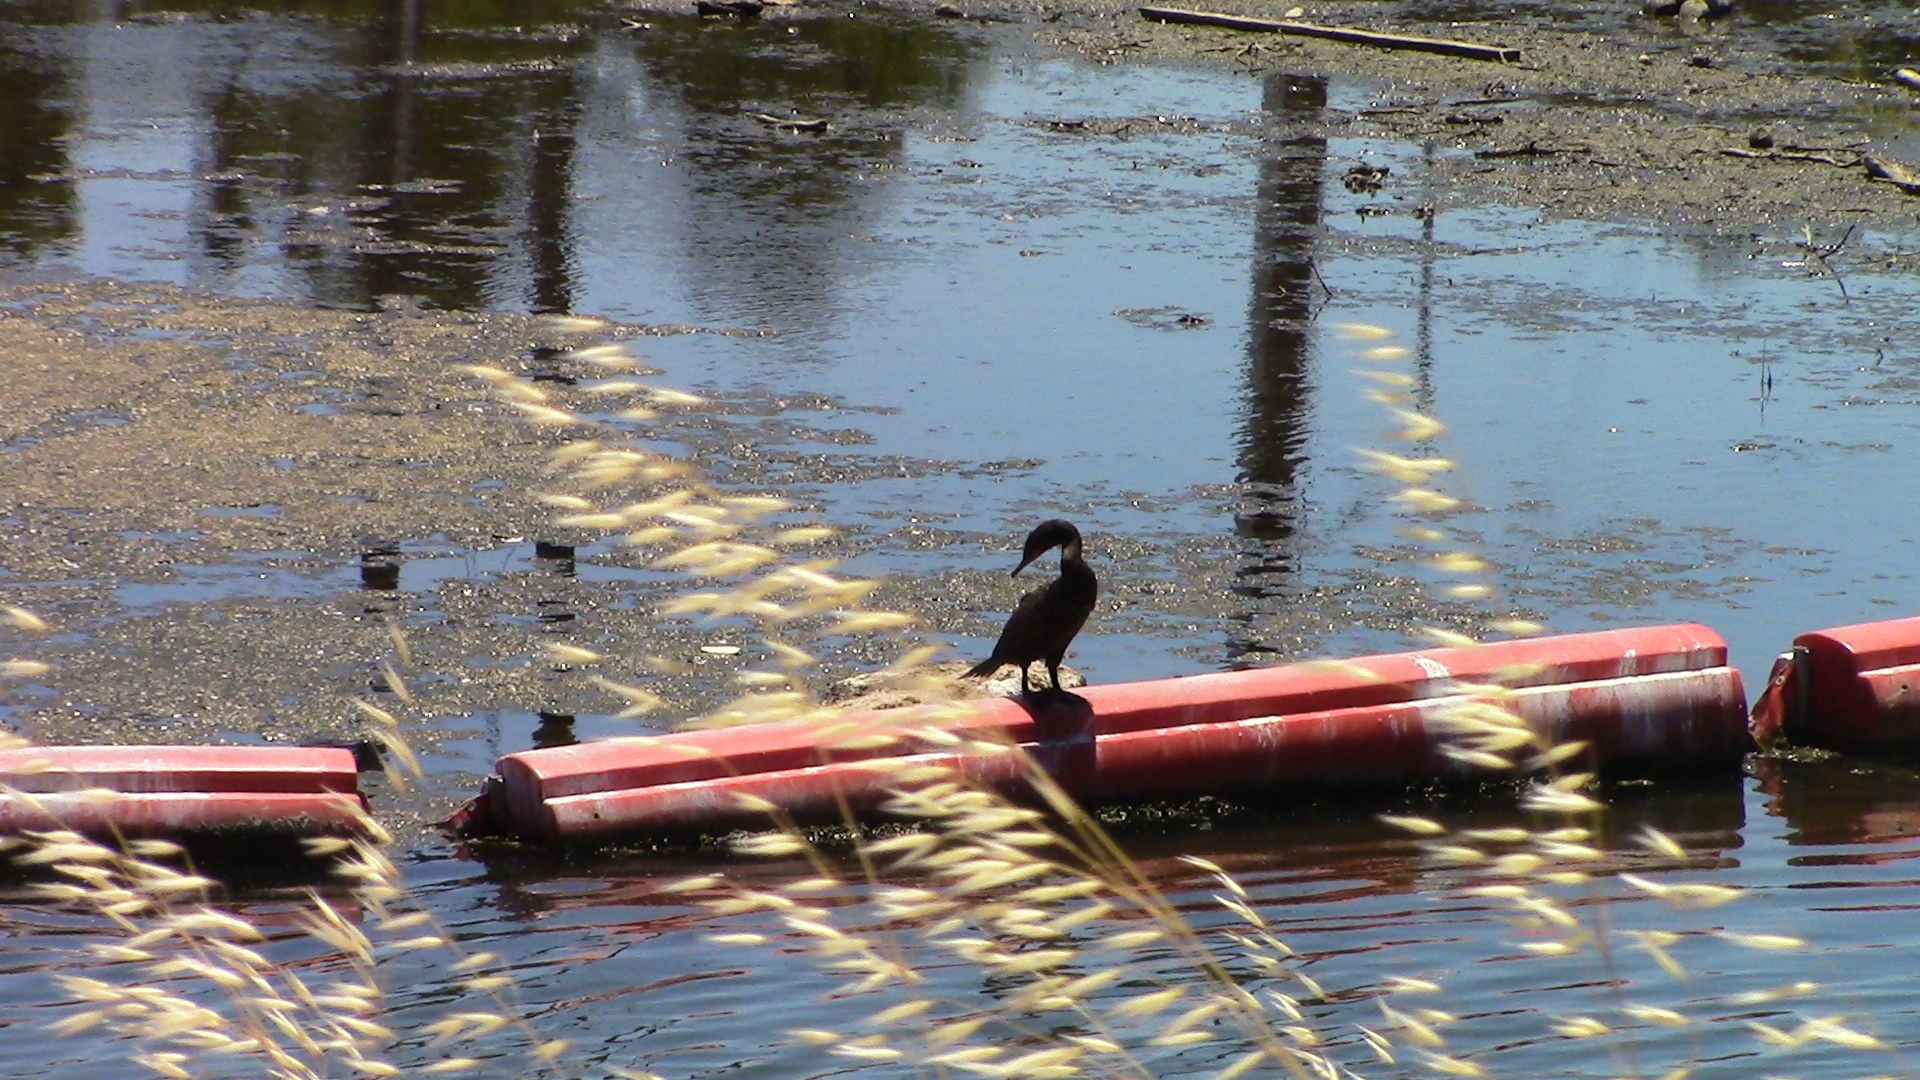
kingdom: Animalia
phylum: Chordata
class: Aves
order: Suliformes
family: Phalacrocoracidae
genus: Phalacrocorax
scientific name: Phalacrocorax auritus
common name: Double-crested cormorant
